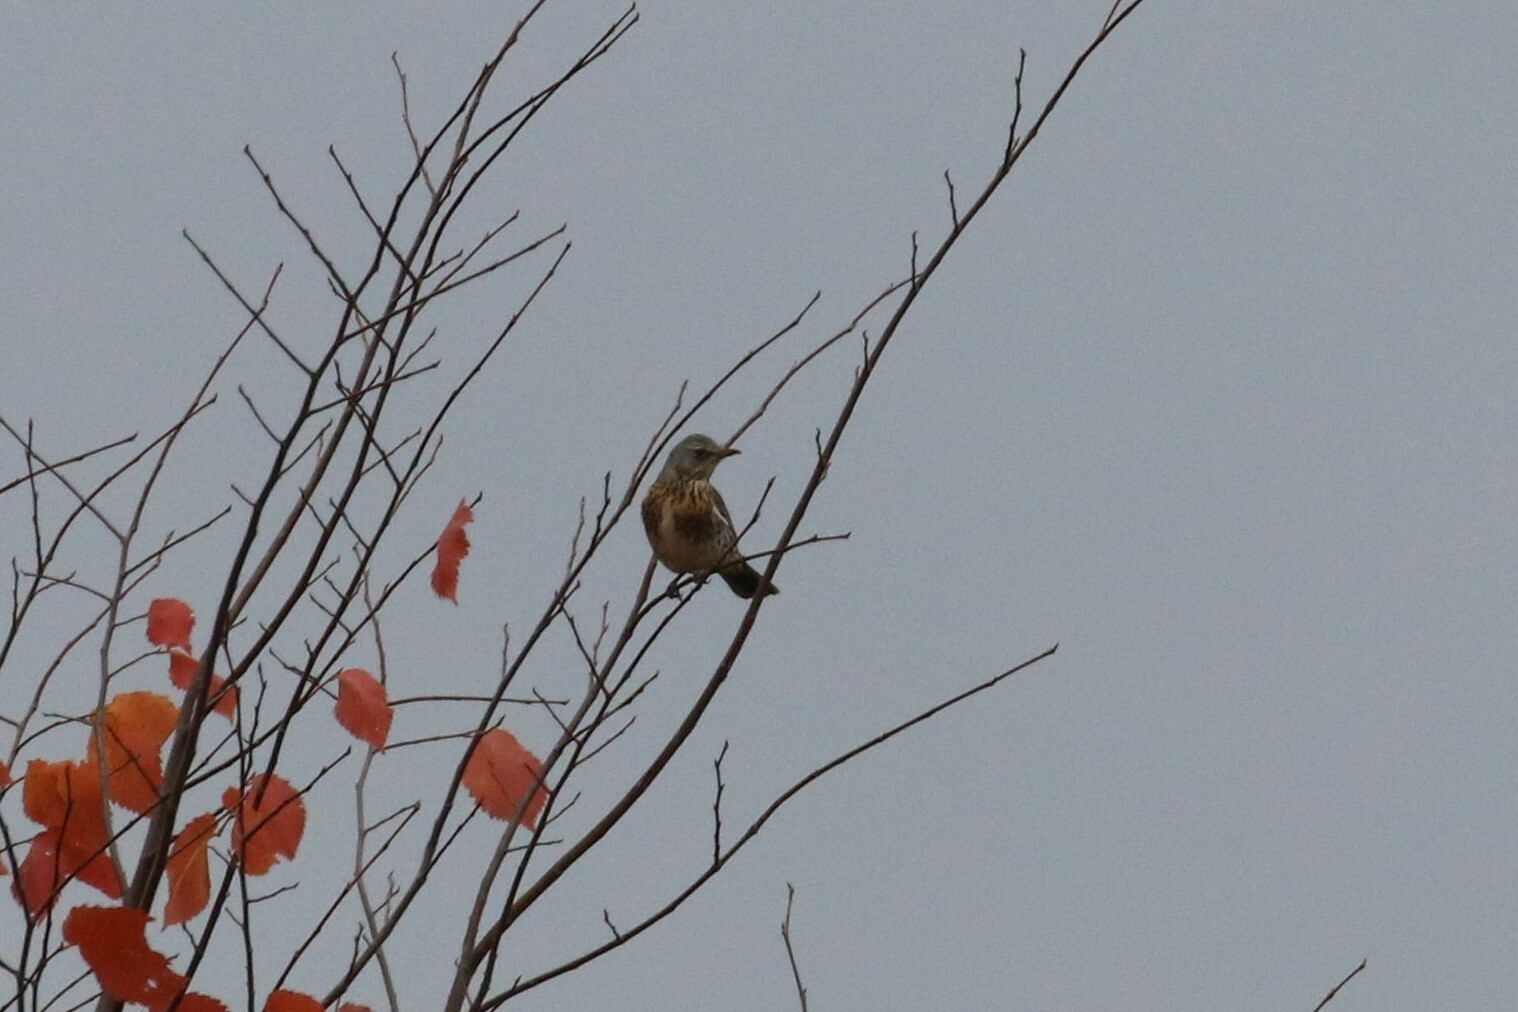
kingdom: Animalia
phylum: Chordata
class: Aves
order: Passeriformes
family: Turdidae
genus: Turdus
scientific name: Turdus pilaris
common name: Fieldfare
